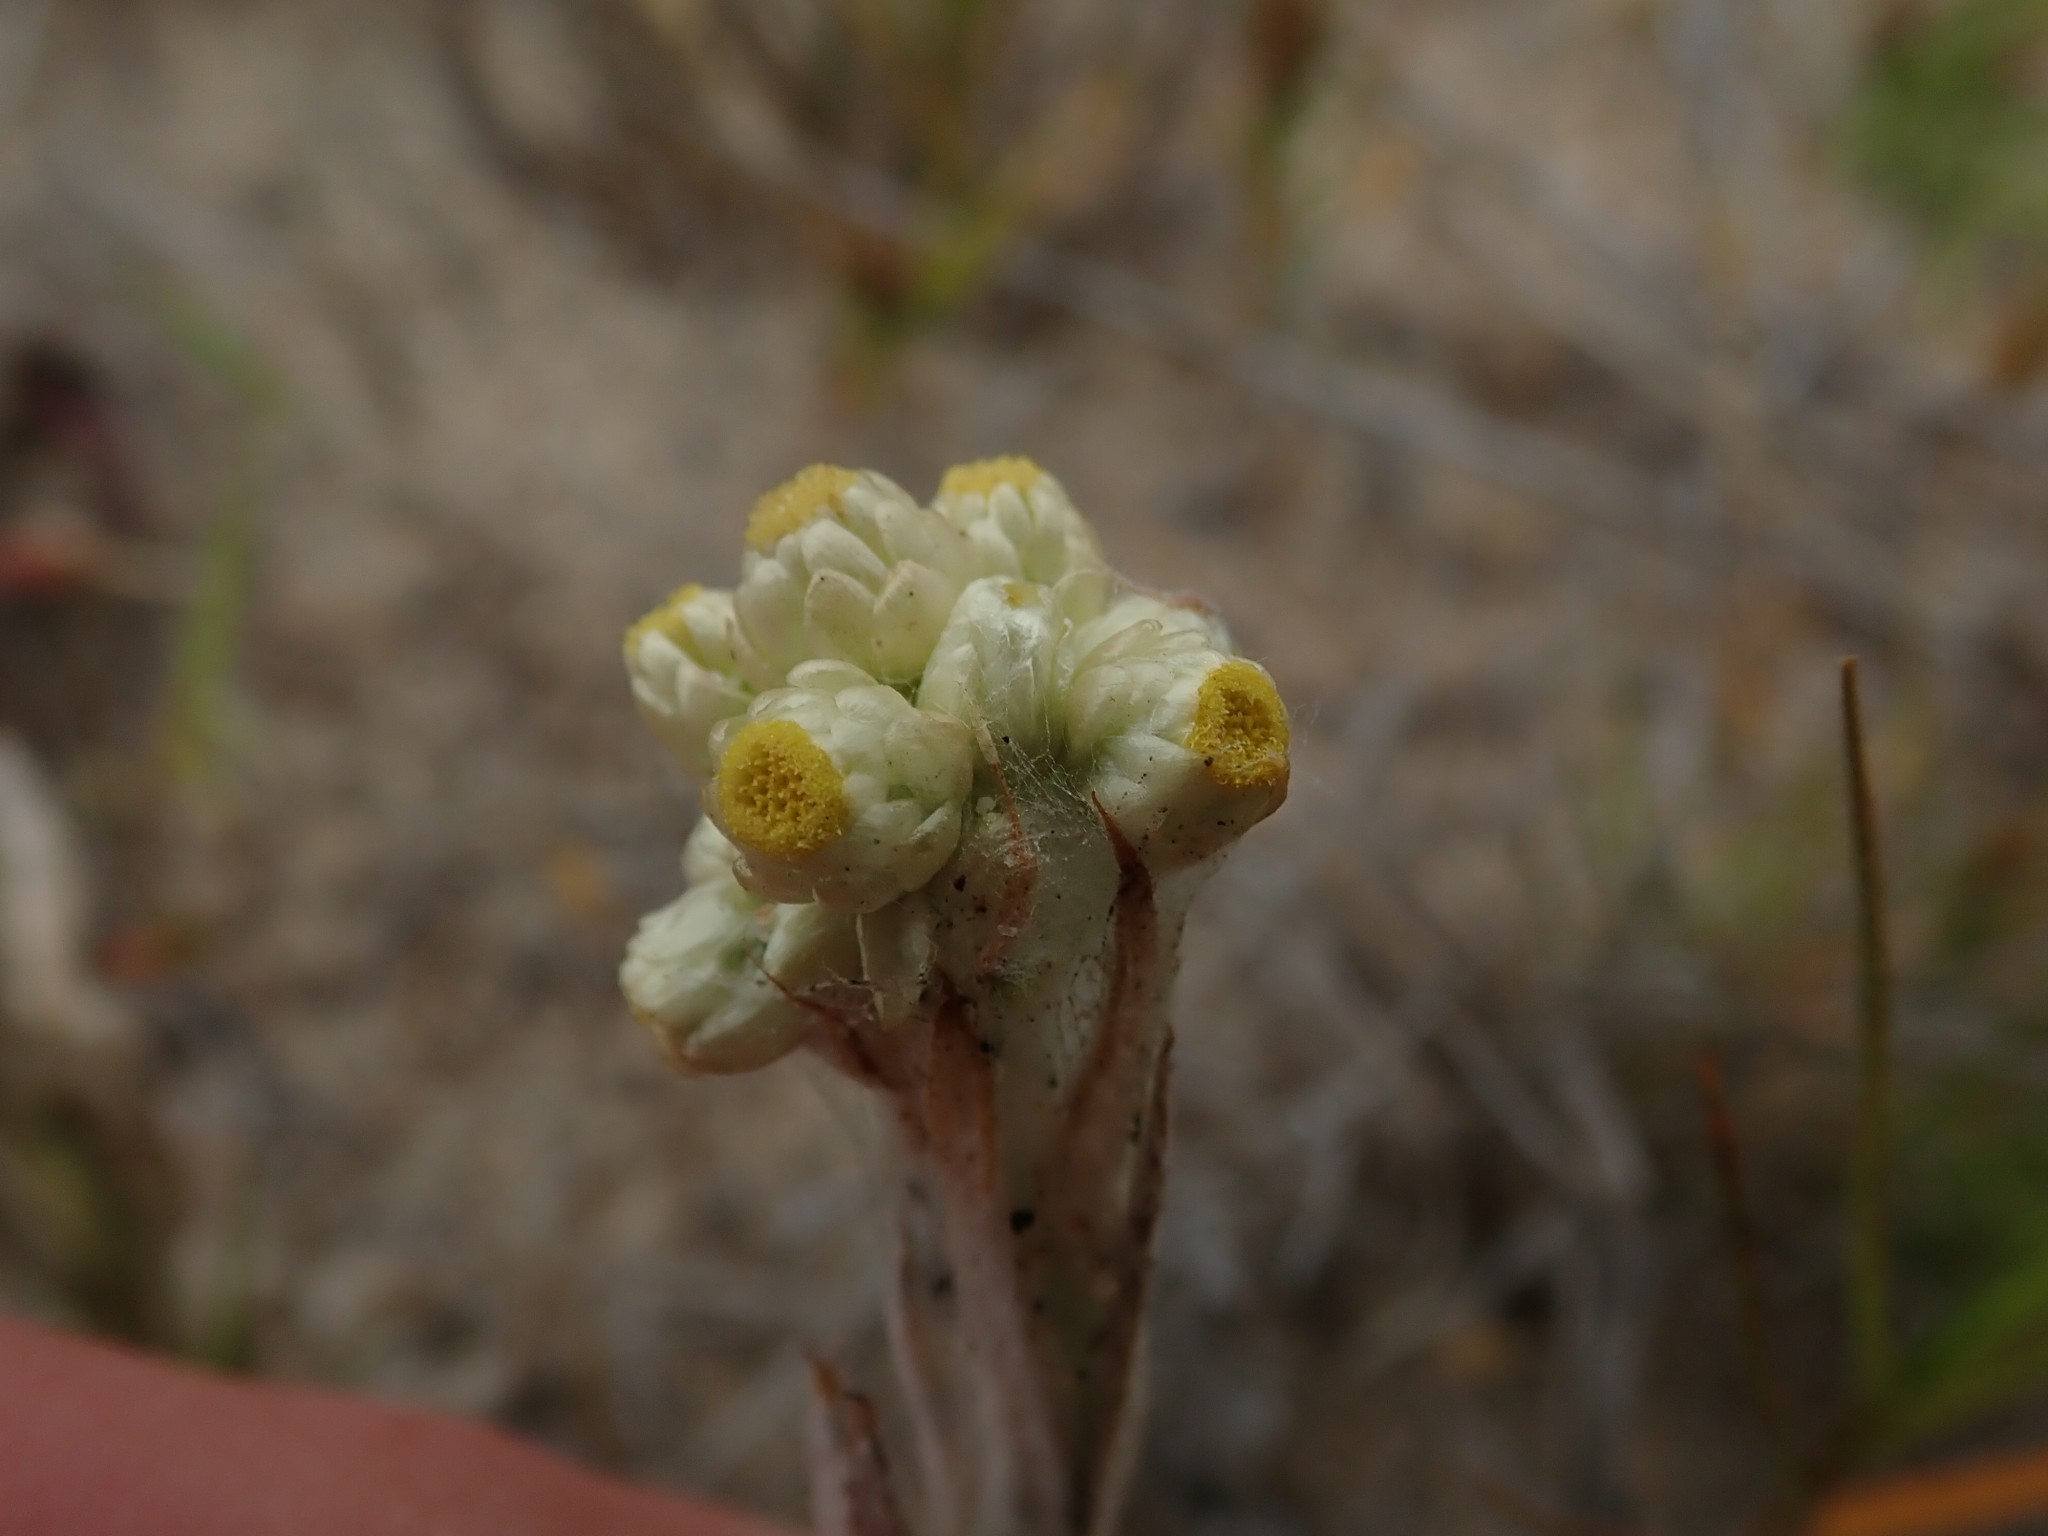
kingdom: Plantae
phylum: Tracheophyta
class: Magnoliopsida
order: Asterales
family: Asteraceae
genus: Pseudognaphalium
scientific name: Pseudognaphalium stramineum
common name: Cotton-batting-plant
